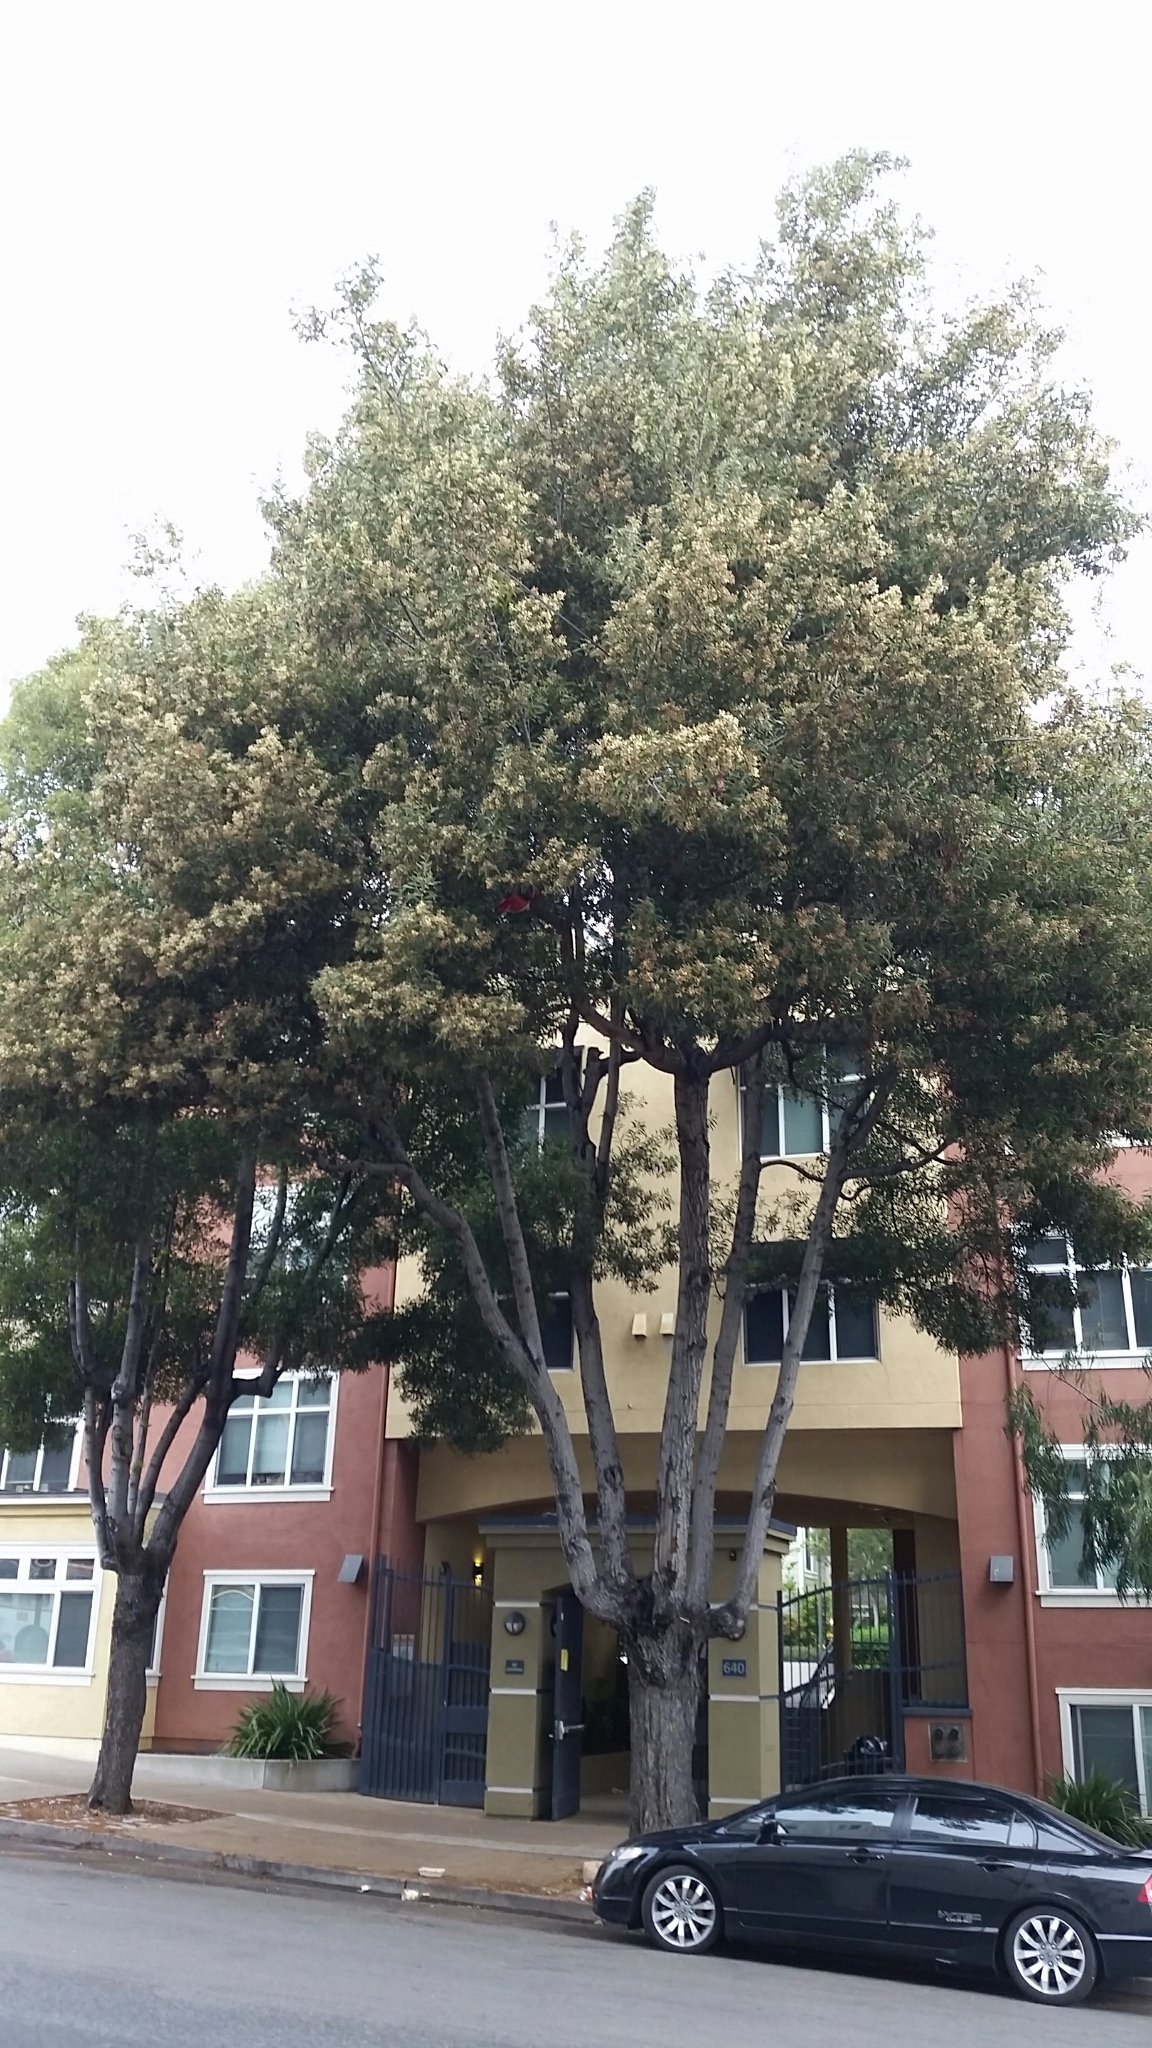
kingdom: Plantae
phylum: Tracheophyta
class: Magnoliopsida
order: Fabales
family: Fabaceae
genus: Acacia
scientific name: Acacia melanoxylon
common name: Blackwood
